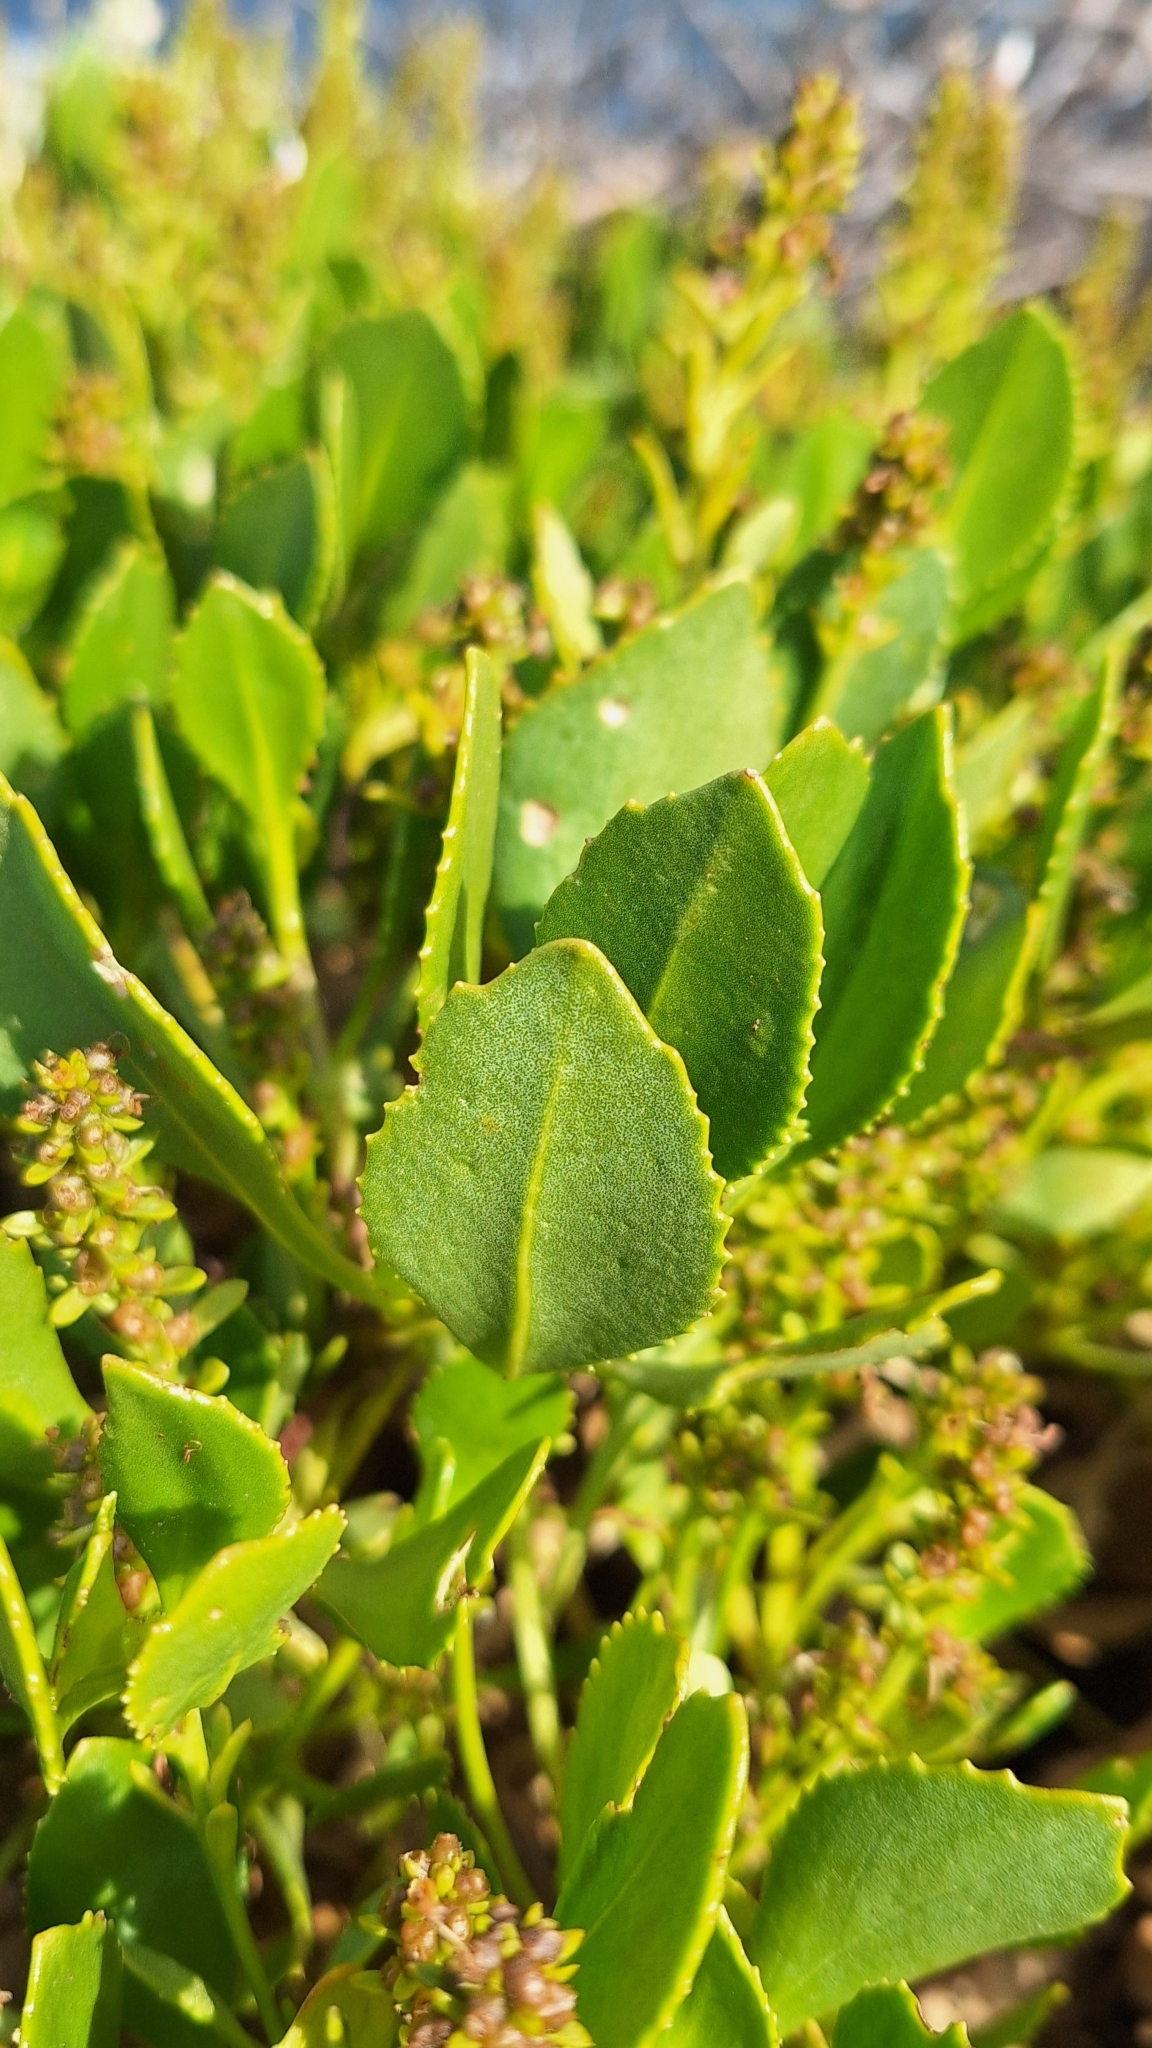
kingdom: Plantae
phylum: Tracheophyta
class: Magnoliopsida
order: Asterales
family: Goodeniaceae
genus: Scaevola
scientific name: Scaevola crassifolia
